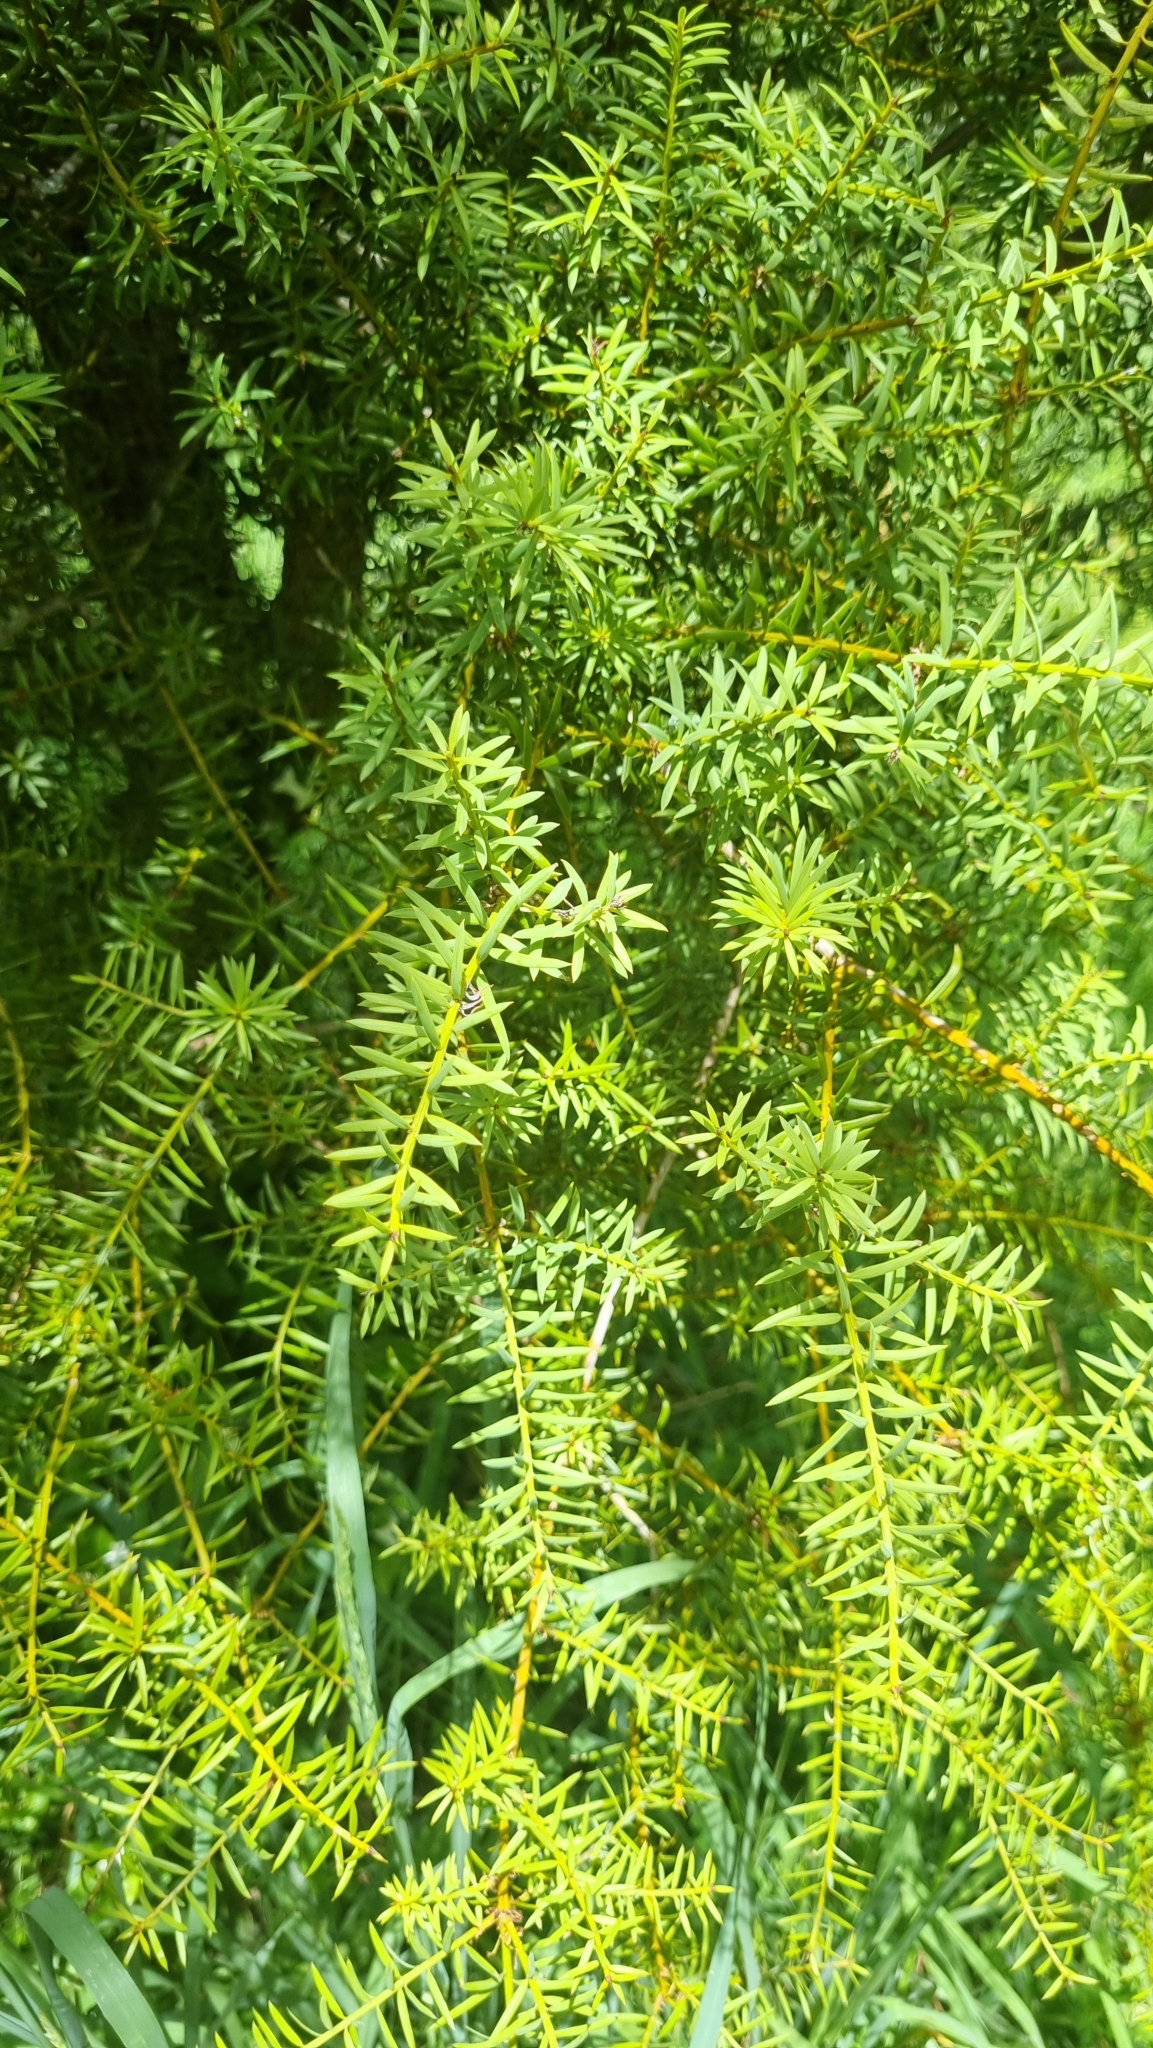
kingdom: Plantae
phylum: Tracheophyta
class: Pinopsida
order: Pinales
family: Podocarpaceae
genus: Podocarpus
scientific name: Podocarpus totara
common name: Totara
